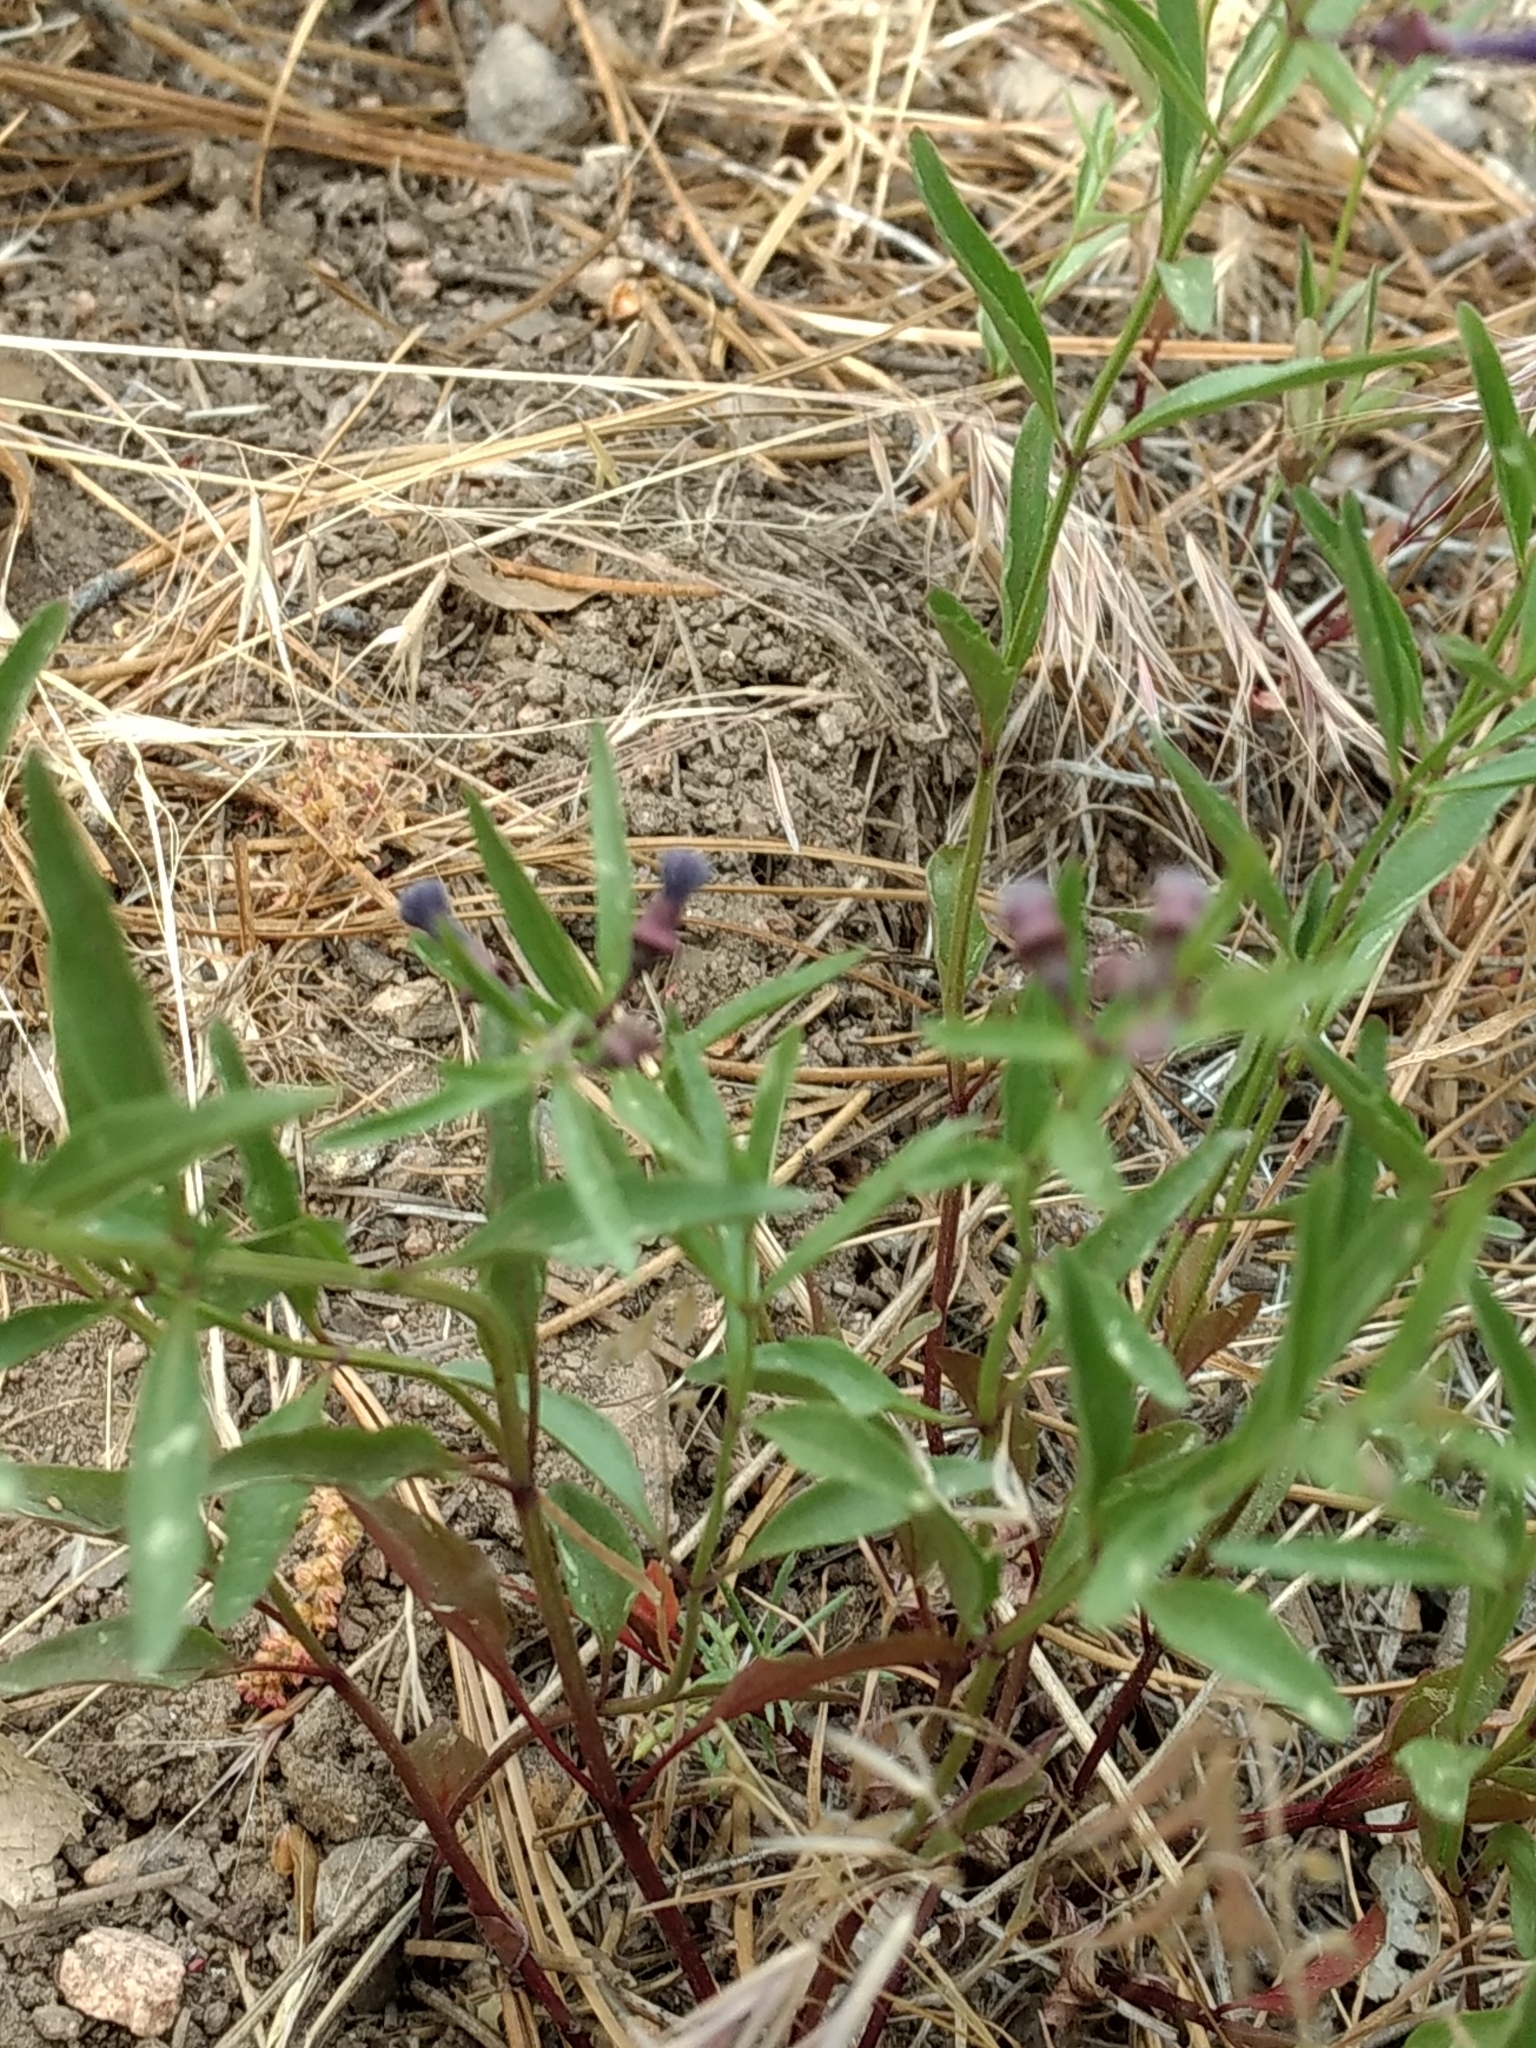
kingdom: Plantae
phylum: Tracheophyta
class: Magnoliopsida
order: Lamiales
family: Lamiaceae
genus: Scutellaria
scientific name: Scutellaria siphocampyloides
